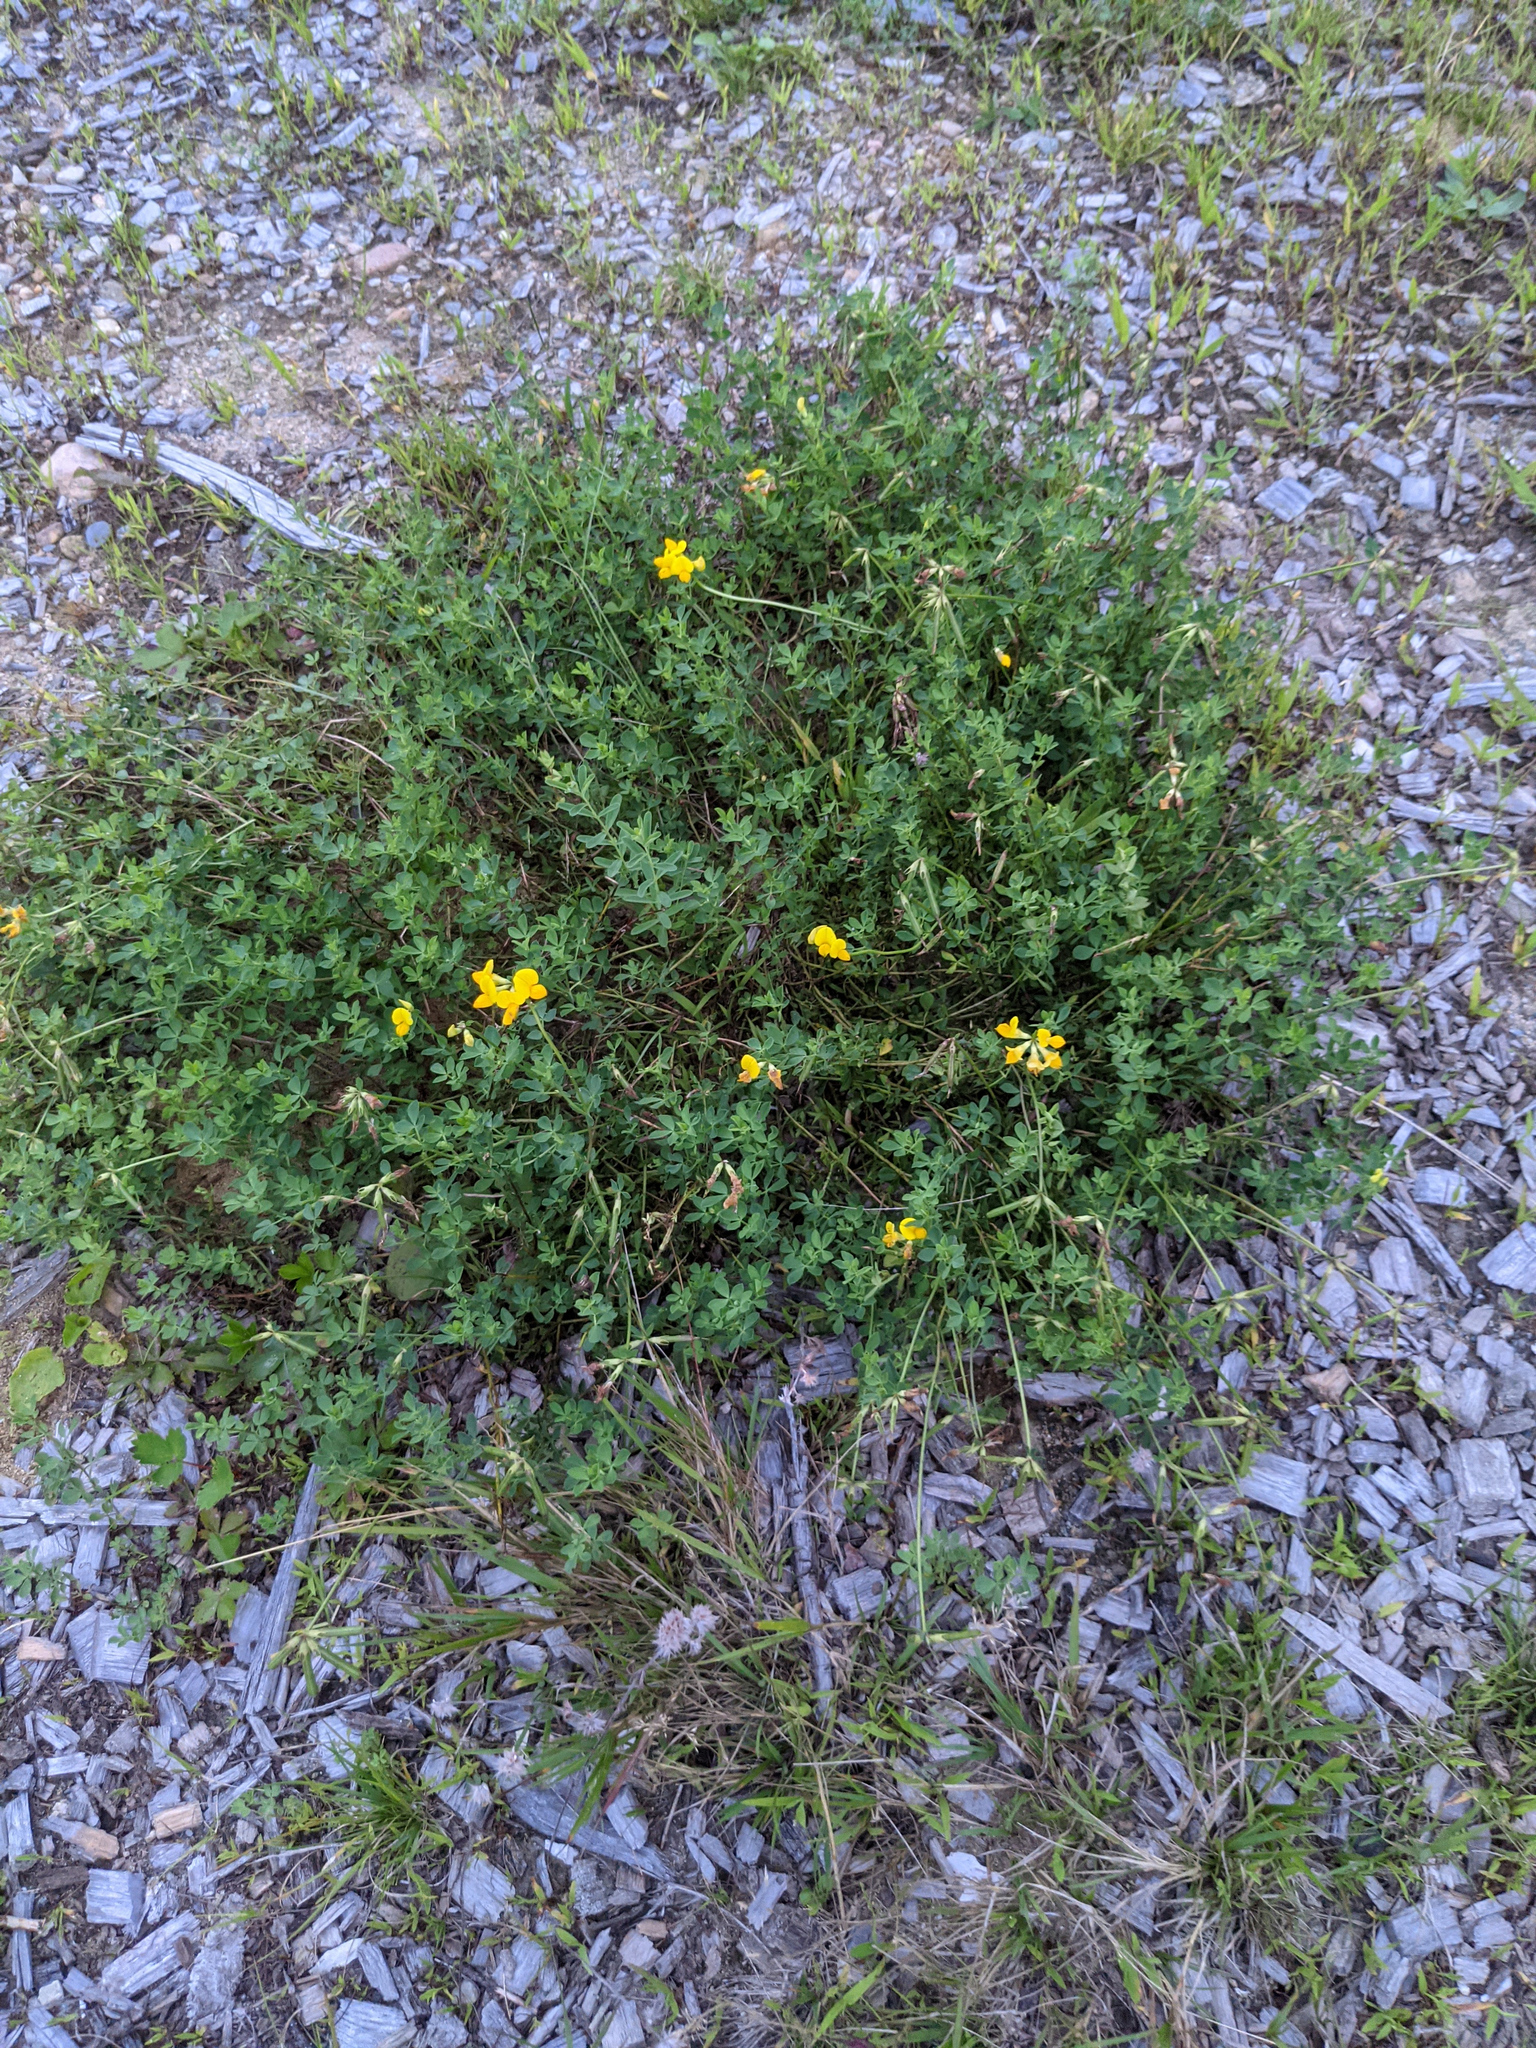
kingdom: Plantae
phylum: Tracheophyta
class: Magnoliopsida
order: Fabales
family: Fabaceae
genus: Lotus
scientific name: Lotus corniculatus
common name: Common bird's-foot-trefoil
